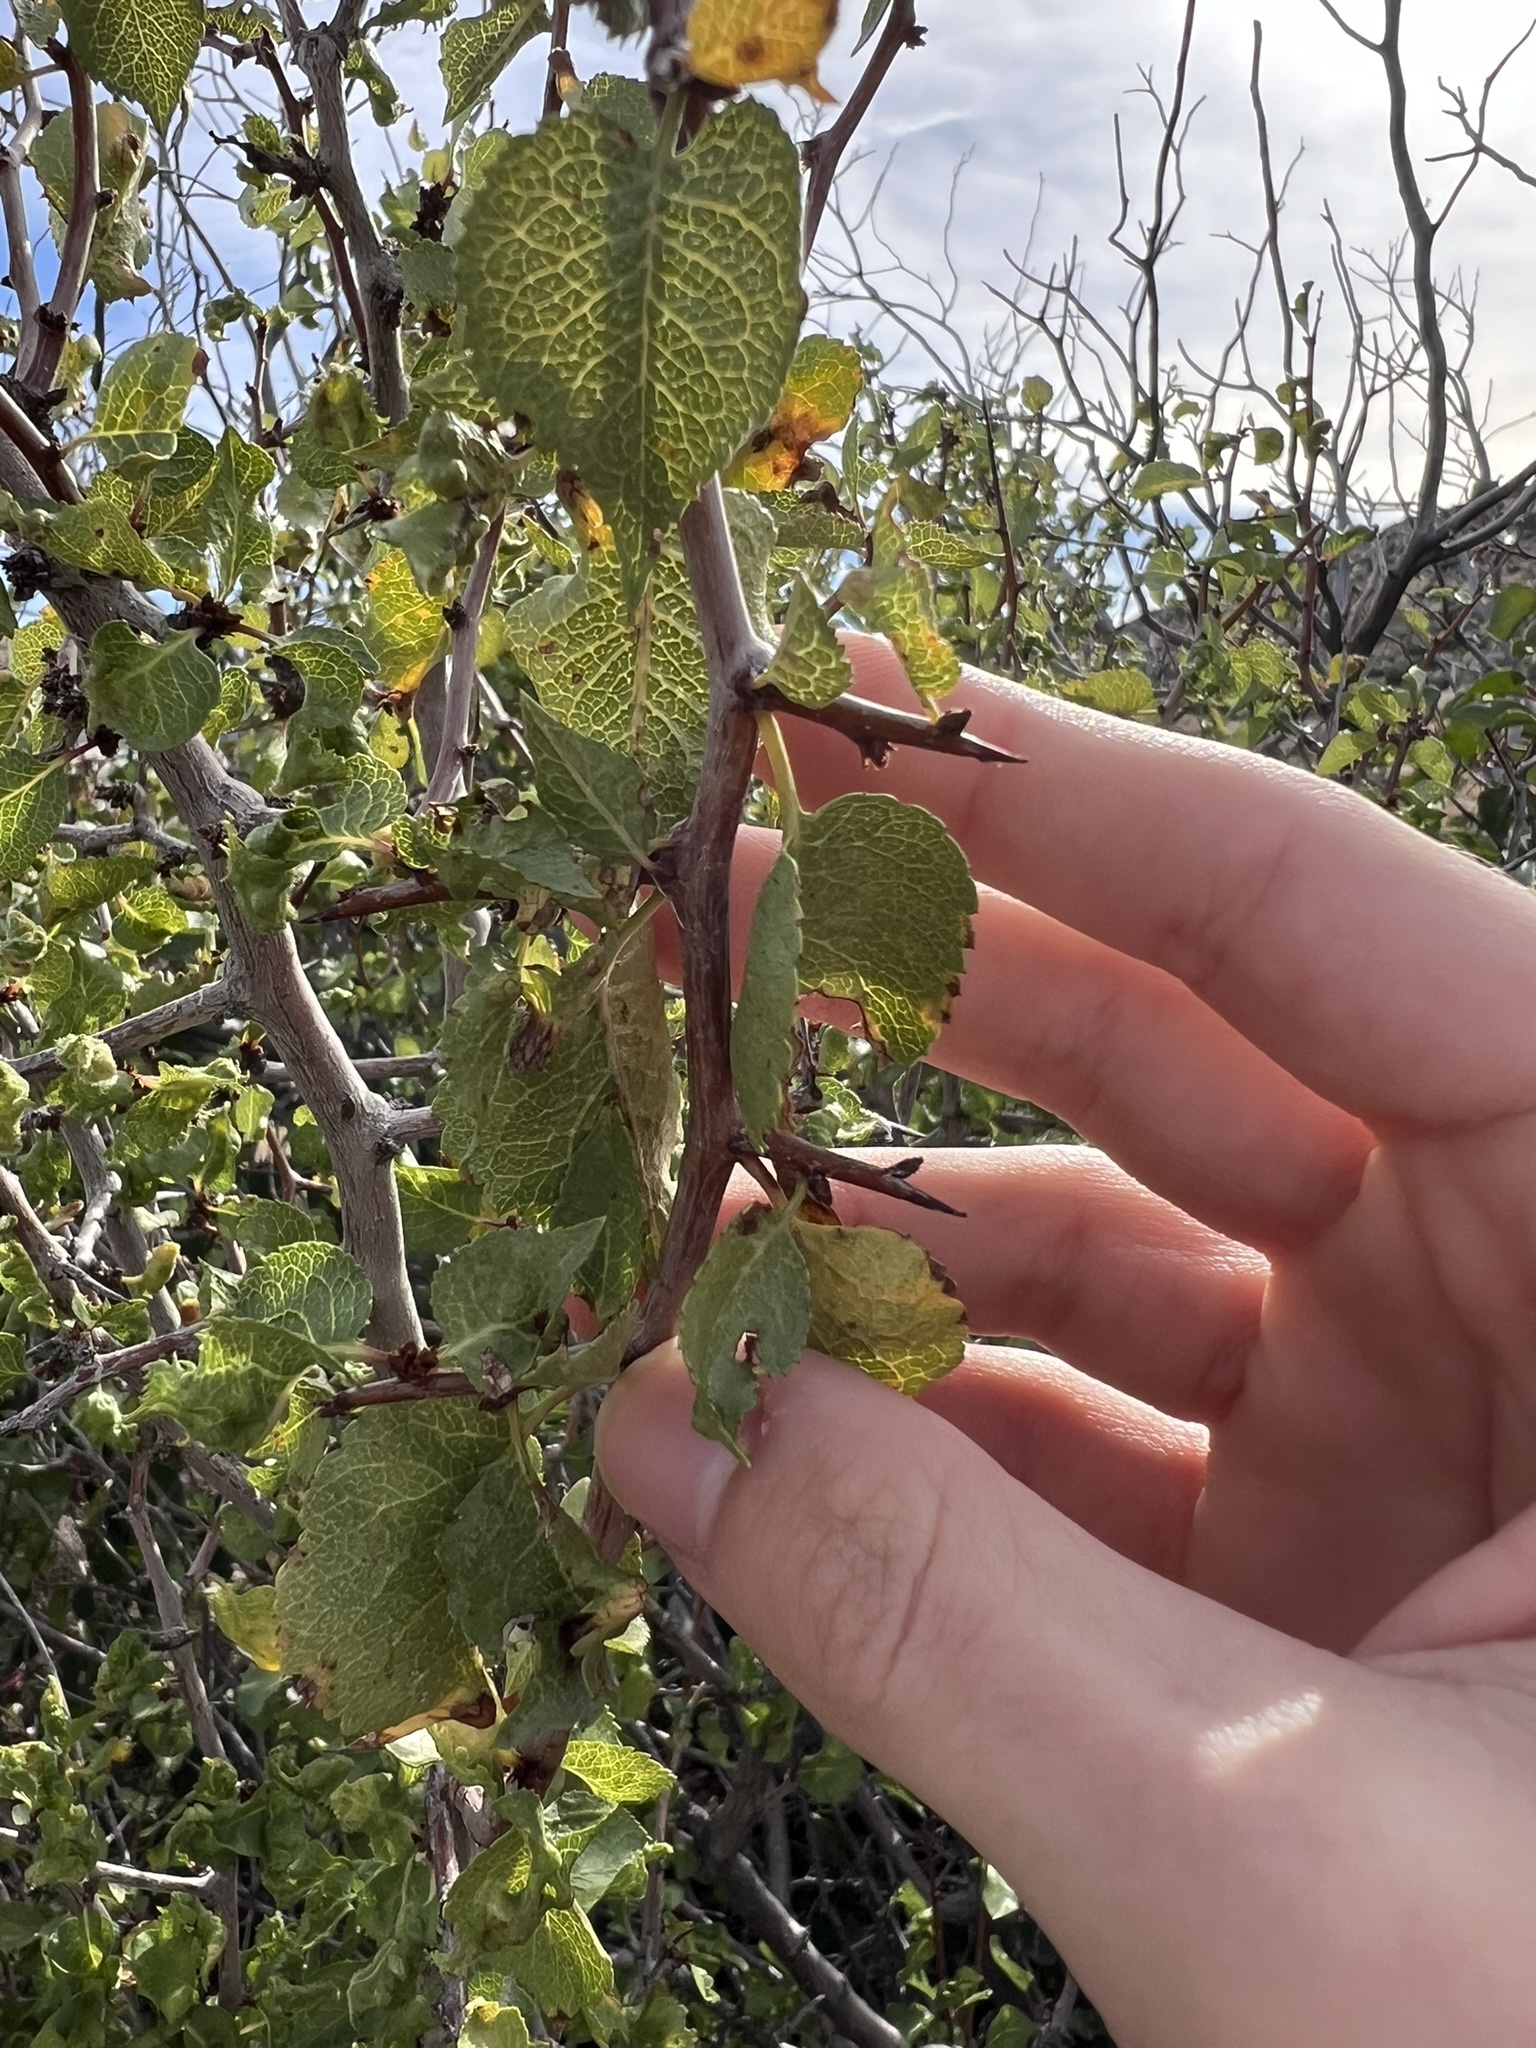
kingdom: Plantae
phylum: Tracheophyta
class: Magnoliopsida
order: Rosales
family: Rosaceae
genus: Prunus
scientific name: Prunus fremontii
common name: Desert apricot
